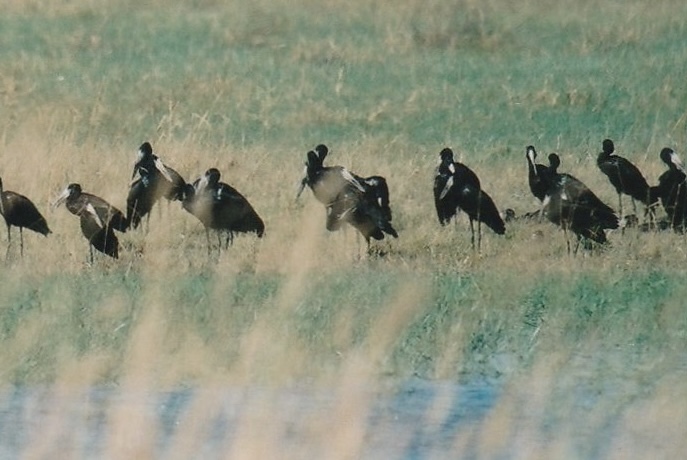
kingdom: Animalia
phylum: Chordata
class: Aves
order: Ciconiiformes
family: Ciconiidae
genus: Anastomus
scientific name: Anastomus lamelligerus
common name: African openbill
